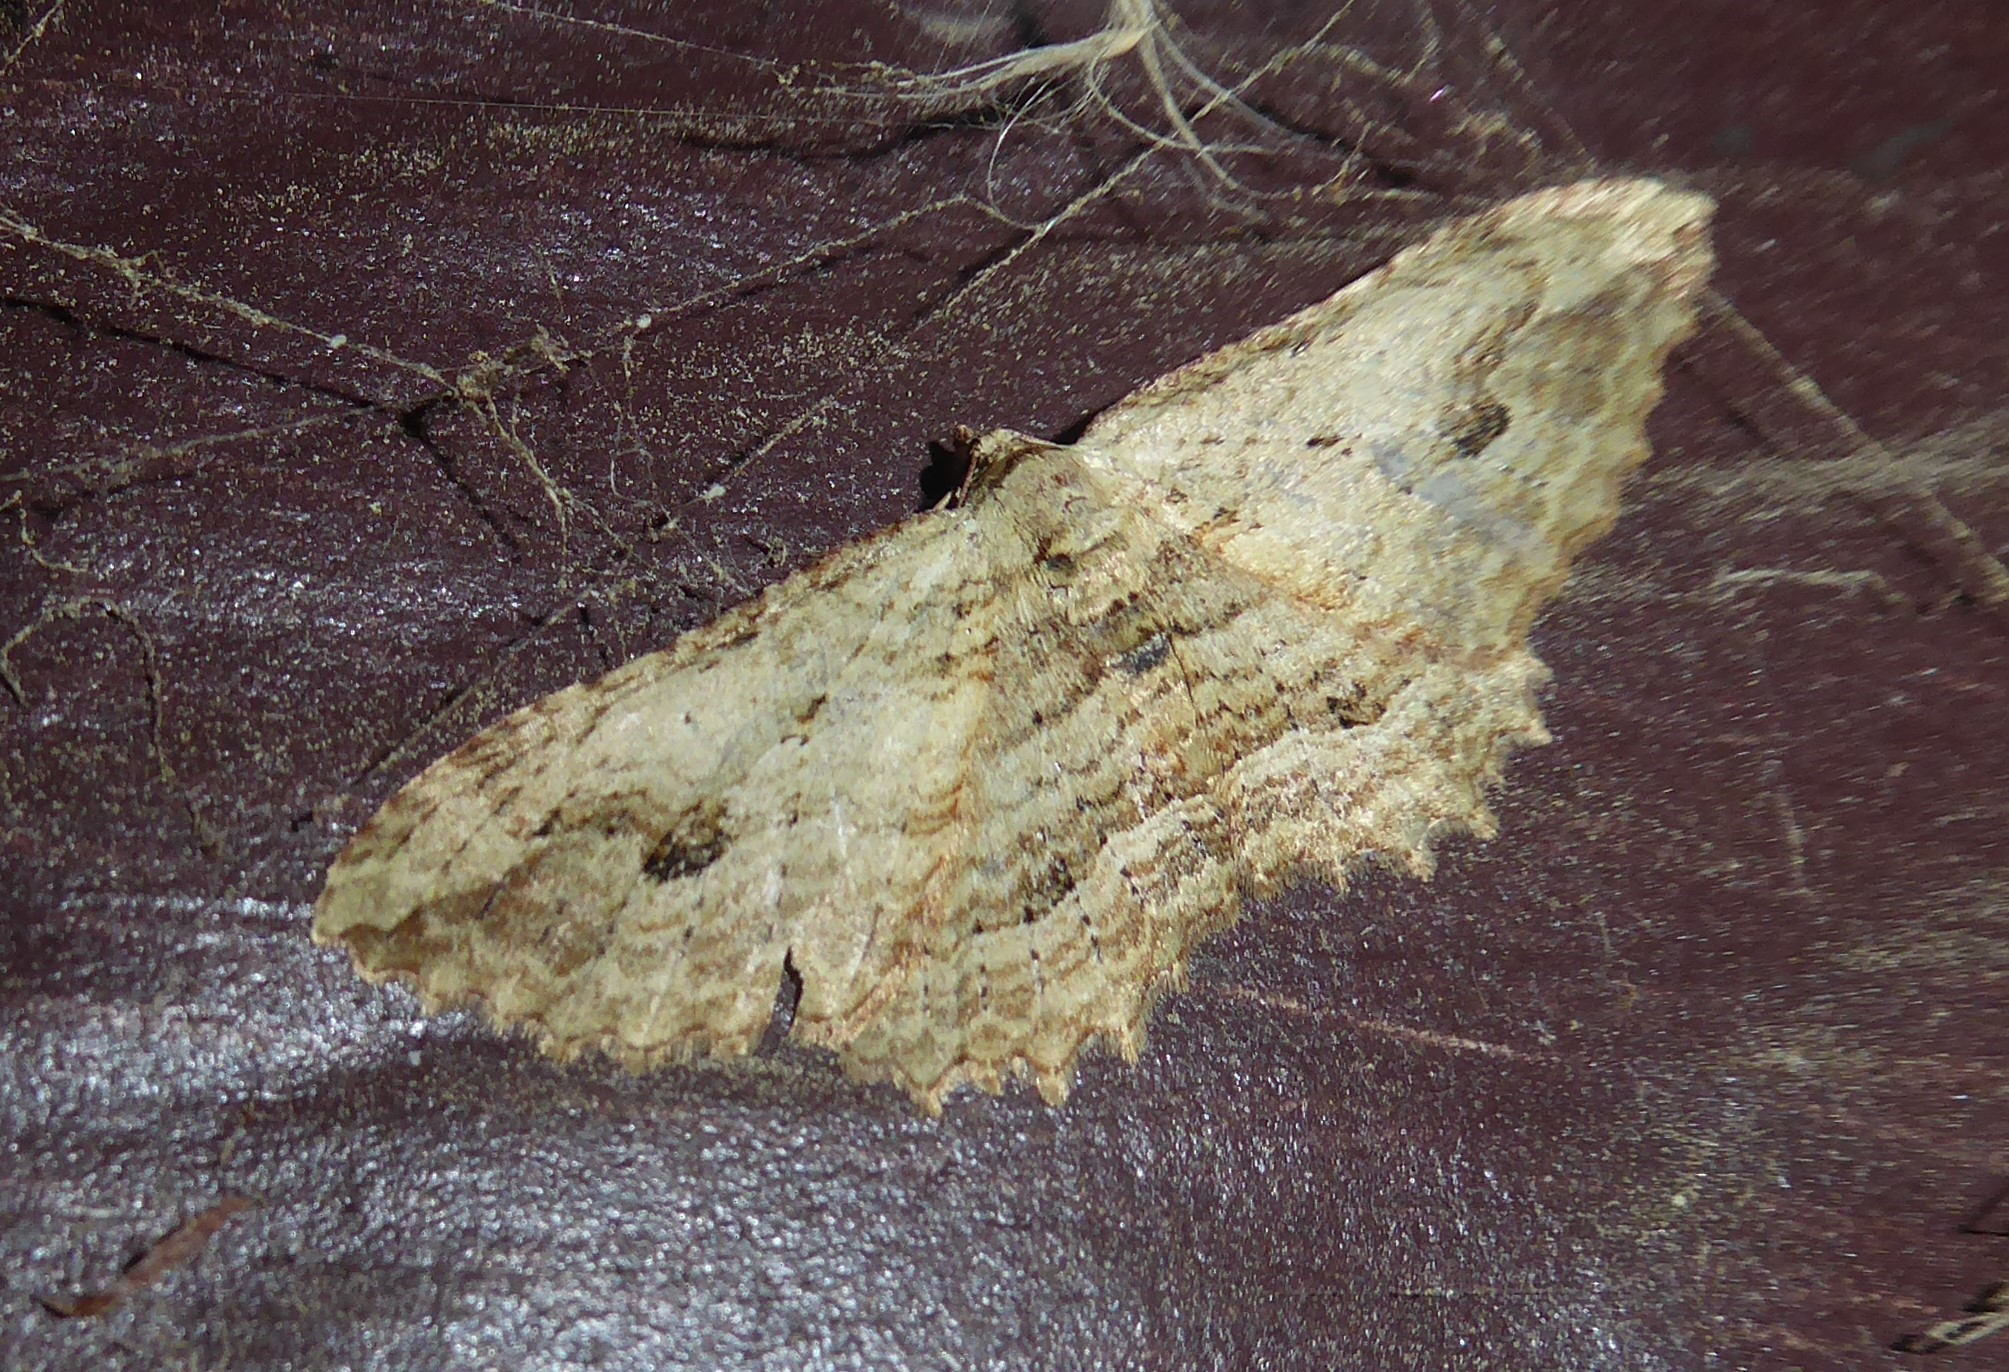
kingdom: Animalia
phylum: Arthropoda
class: Insecta
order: Lepidoptera
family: Geometridae
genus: Austrocidaria
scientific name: Austrocidaria bipartita
